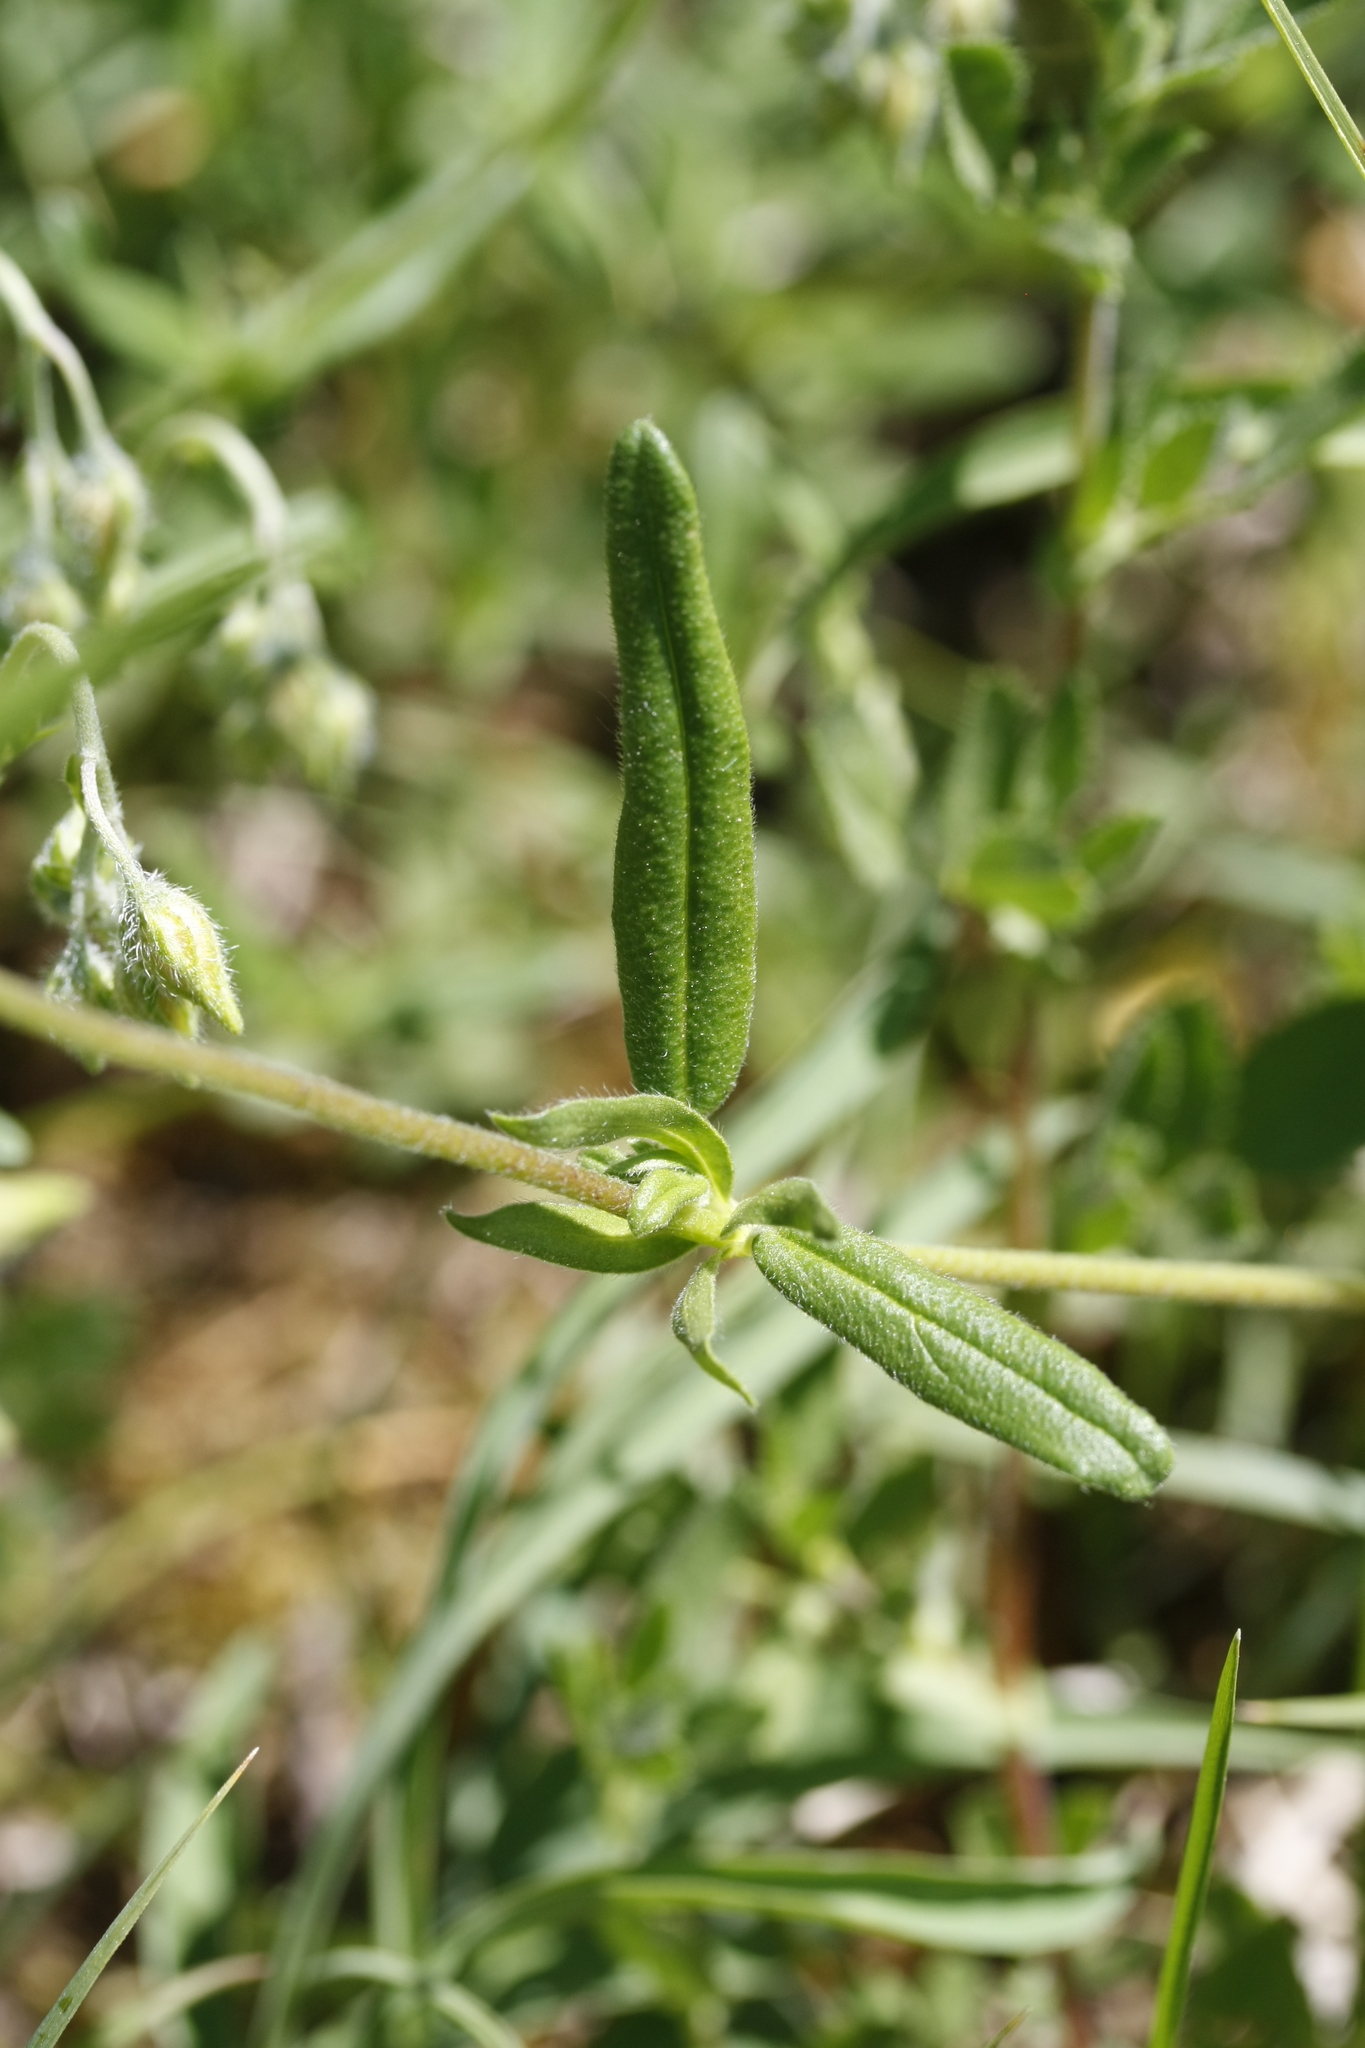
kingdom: Plantae
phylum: Tracheophyta
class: Magnoliopsida
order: Malvales
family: Cistaceae
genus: Helianthemum
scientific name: Helianthemum nummularium
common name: Common rock-rose
